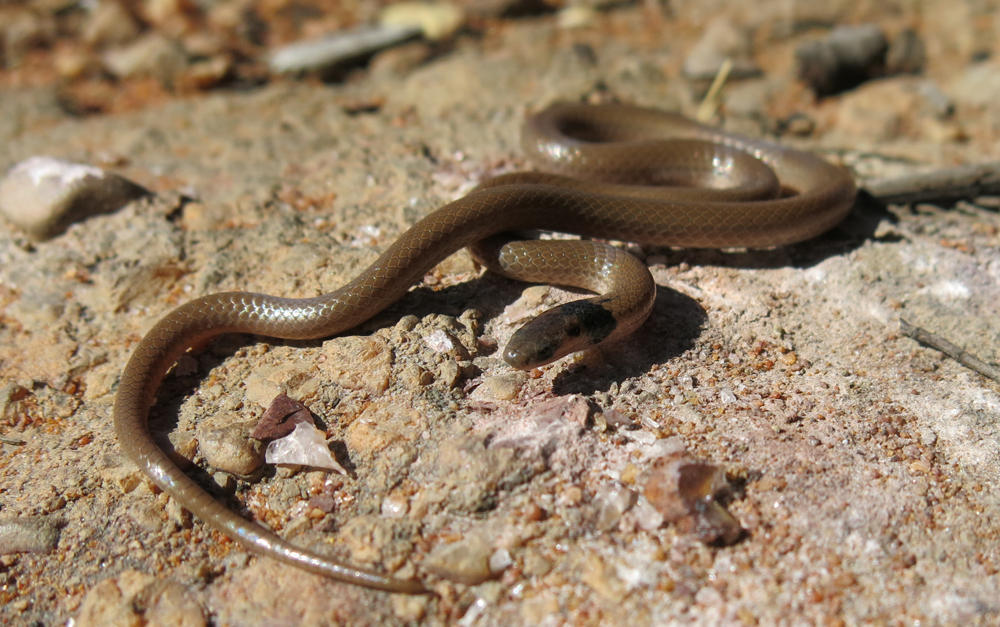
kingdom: Animalia
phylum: Chordata
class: Squamata
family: Atractaspididae
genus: Aparallactus
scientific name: Aparallactus capensis
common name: Cape centipede eater
